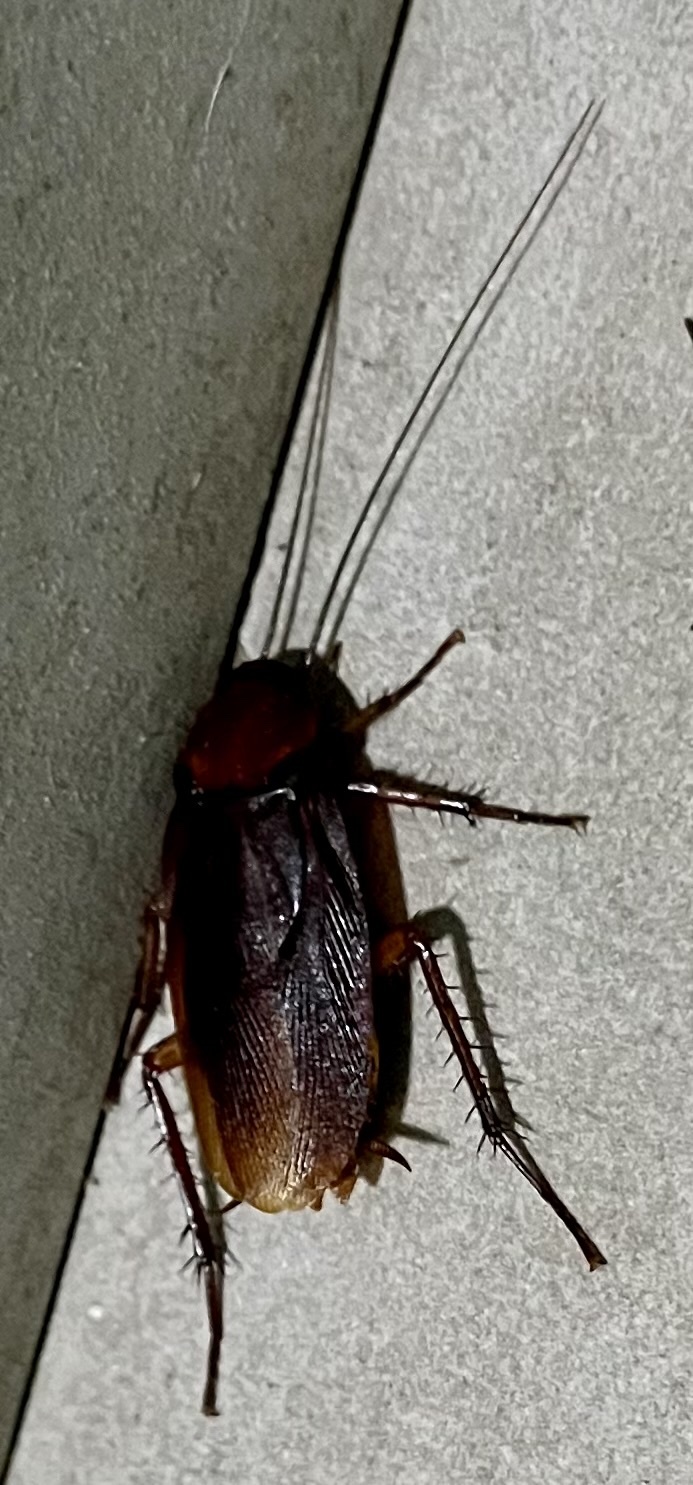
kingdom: Animalia
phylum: Arthropoda
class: Insecta
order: Blattodea
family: Blattidae
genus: Periplaneta
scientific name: Periplaneta brunnea
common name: Brown cockroach
